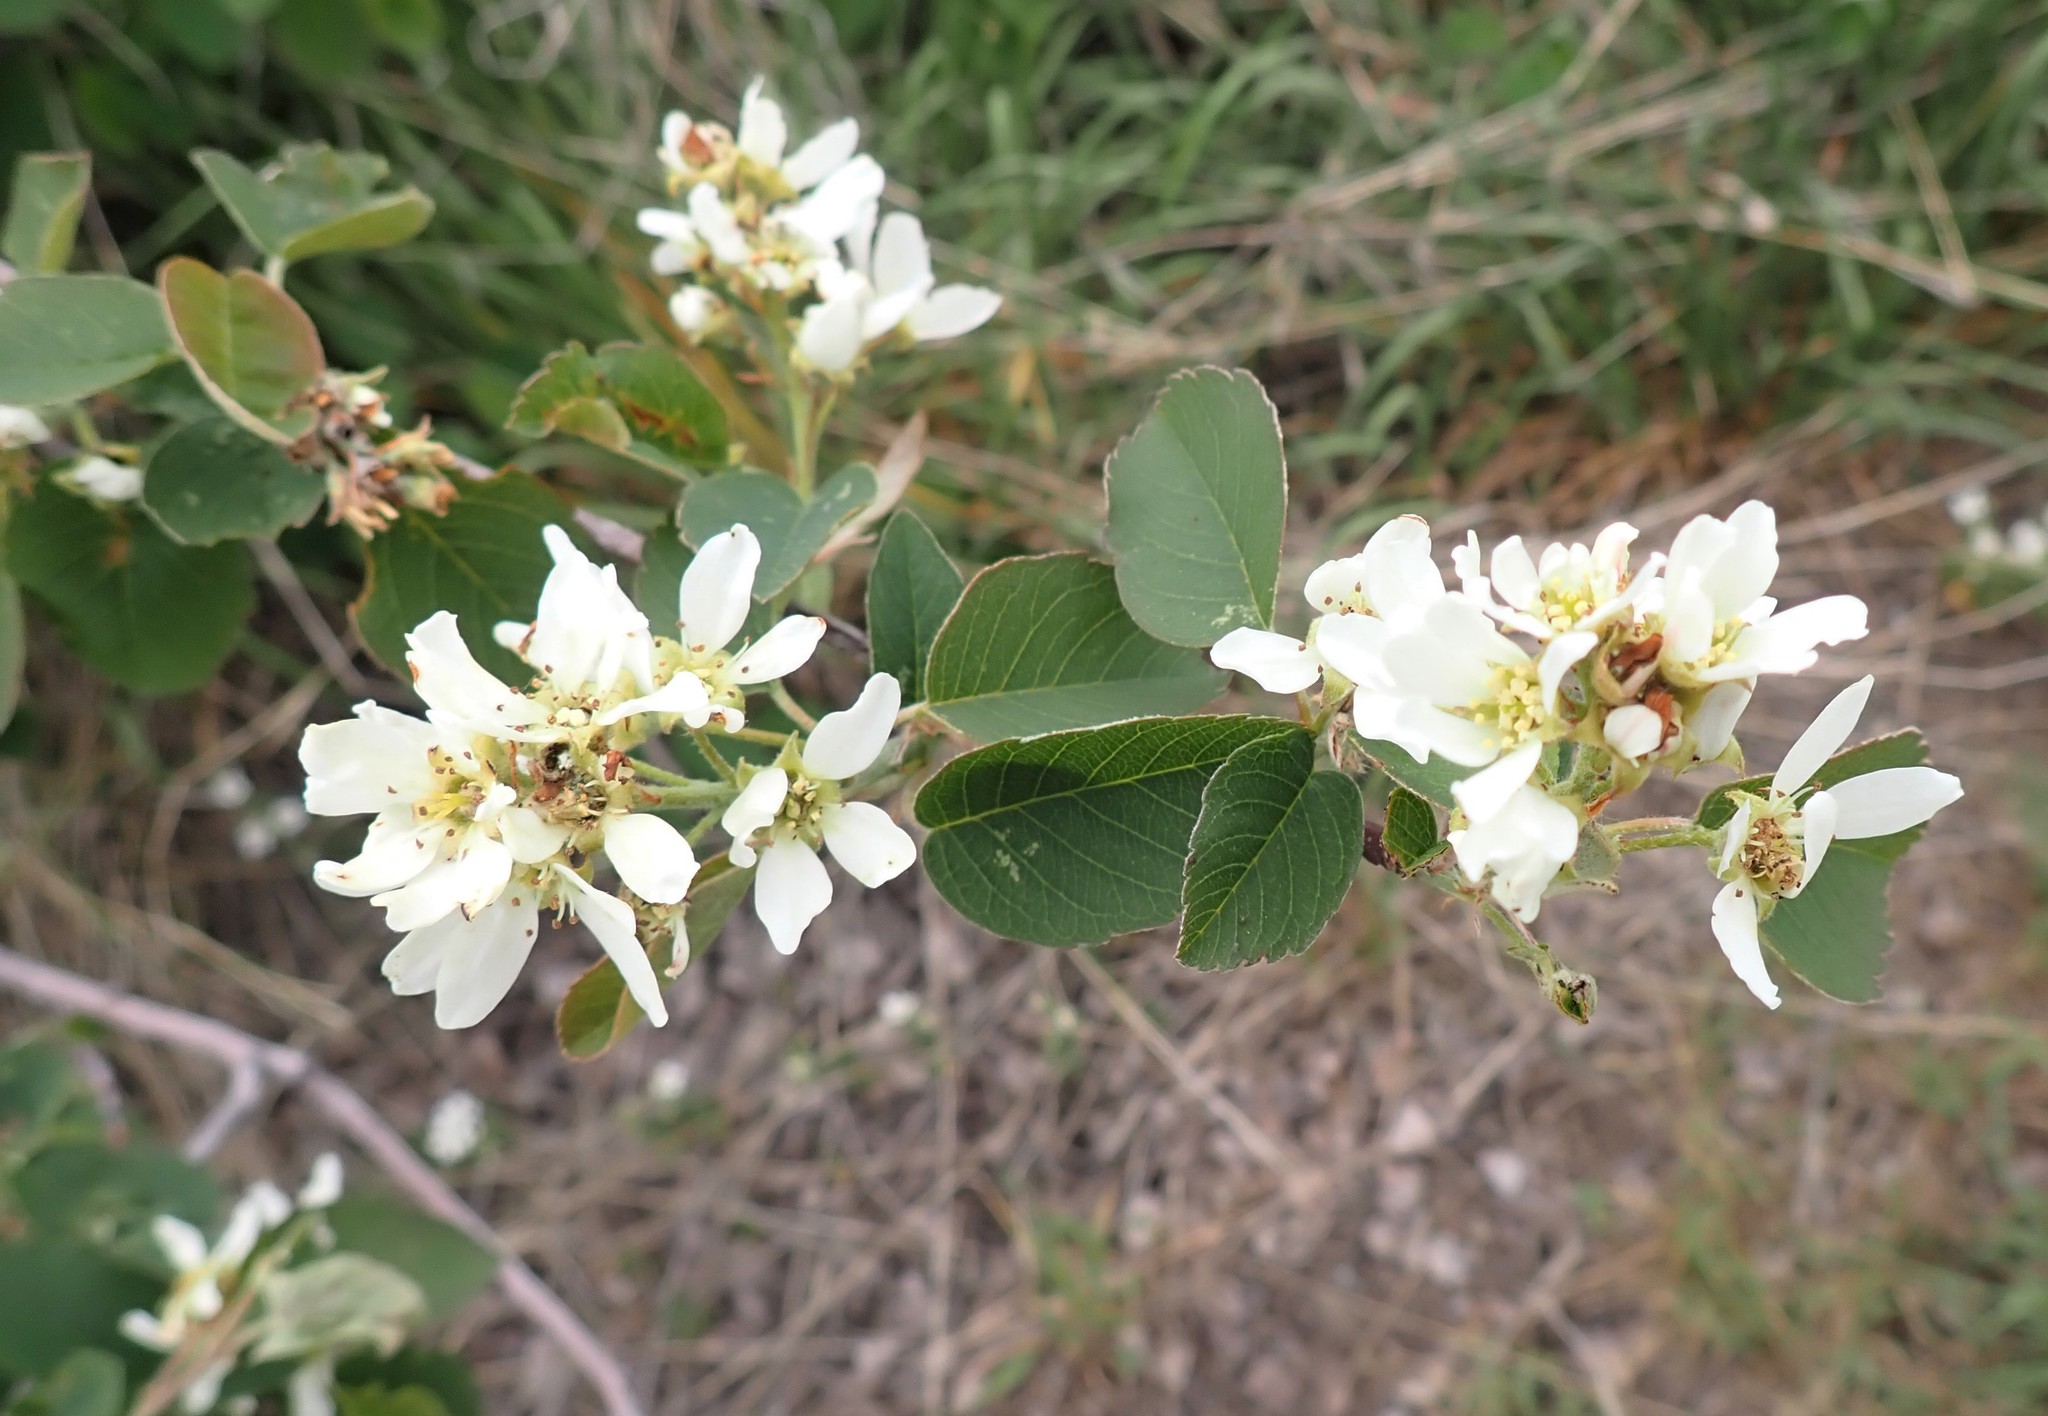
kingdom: Plantae
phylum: Tracheophyta
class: Magnoliopsida
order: Rosales
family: Rosaceae
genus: Amelanchier
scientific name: Amelanchier alnifolia
